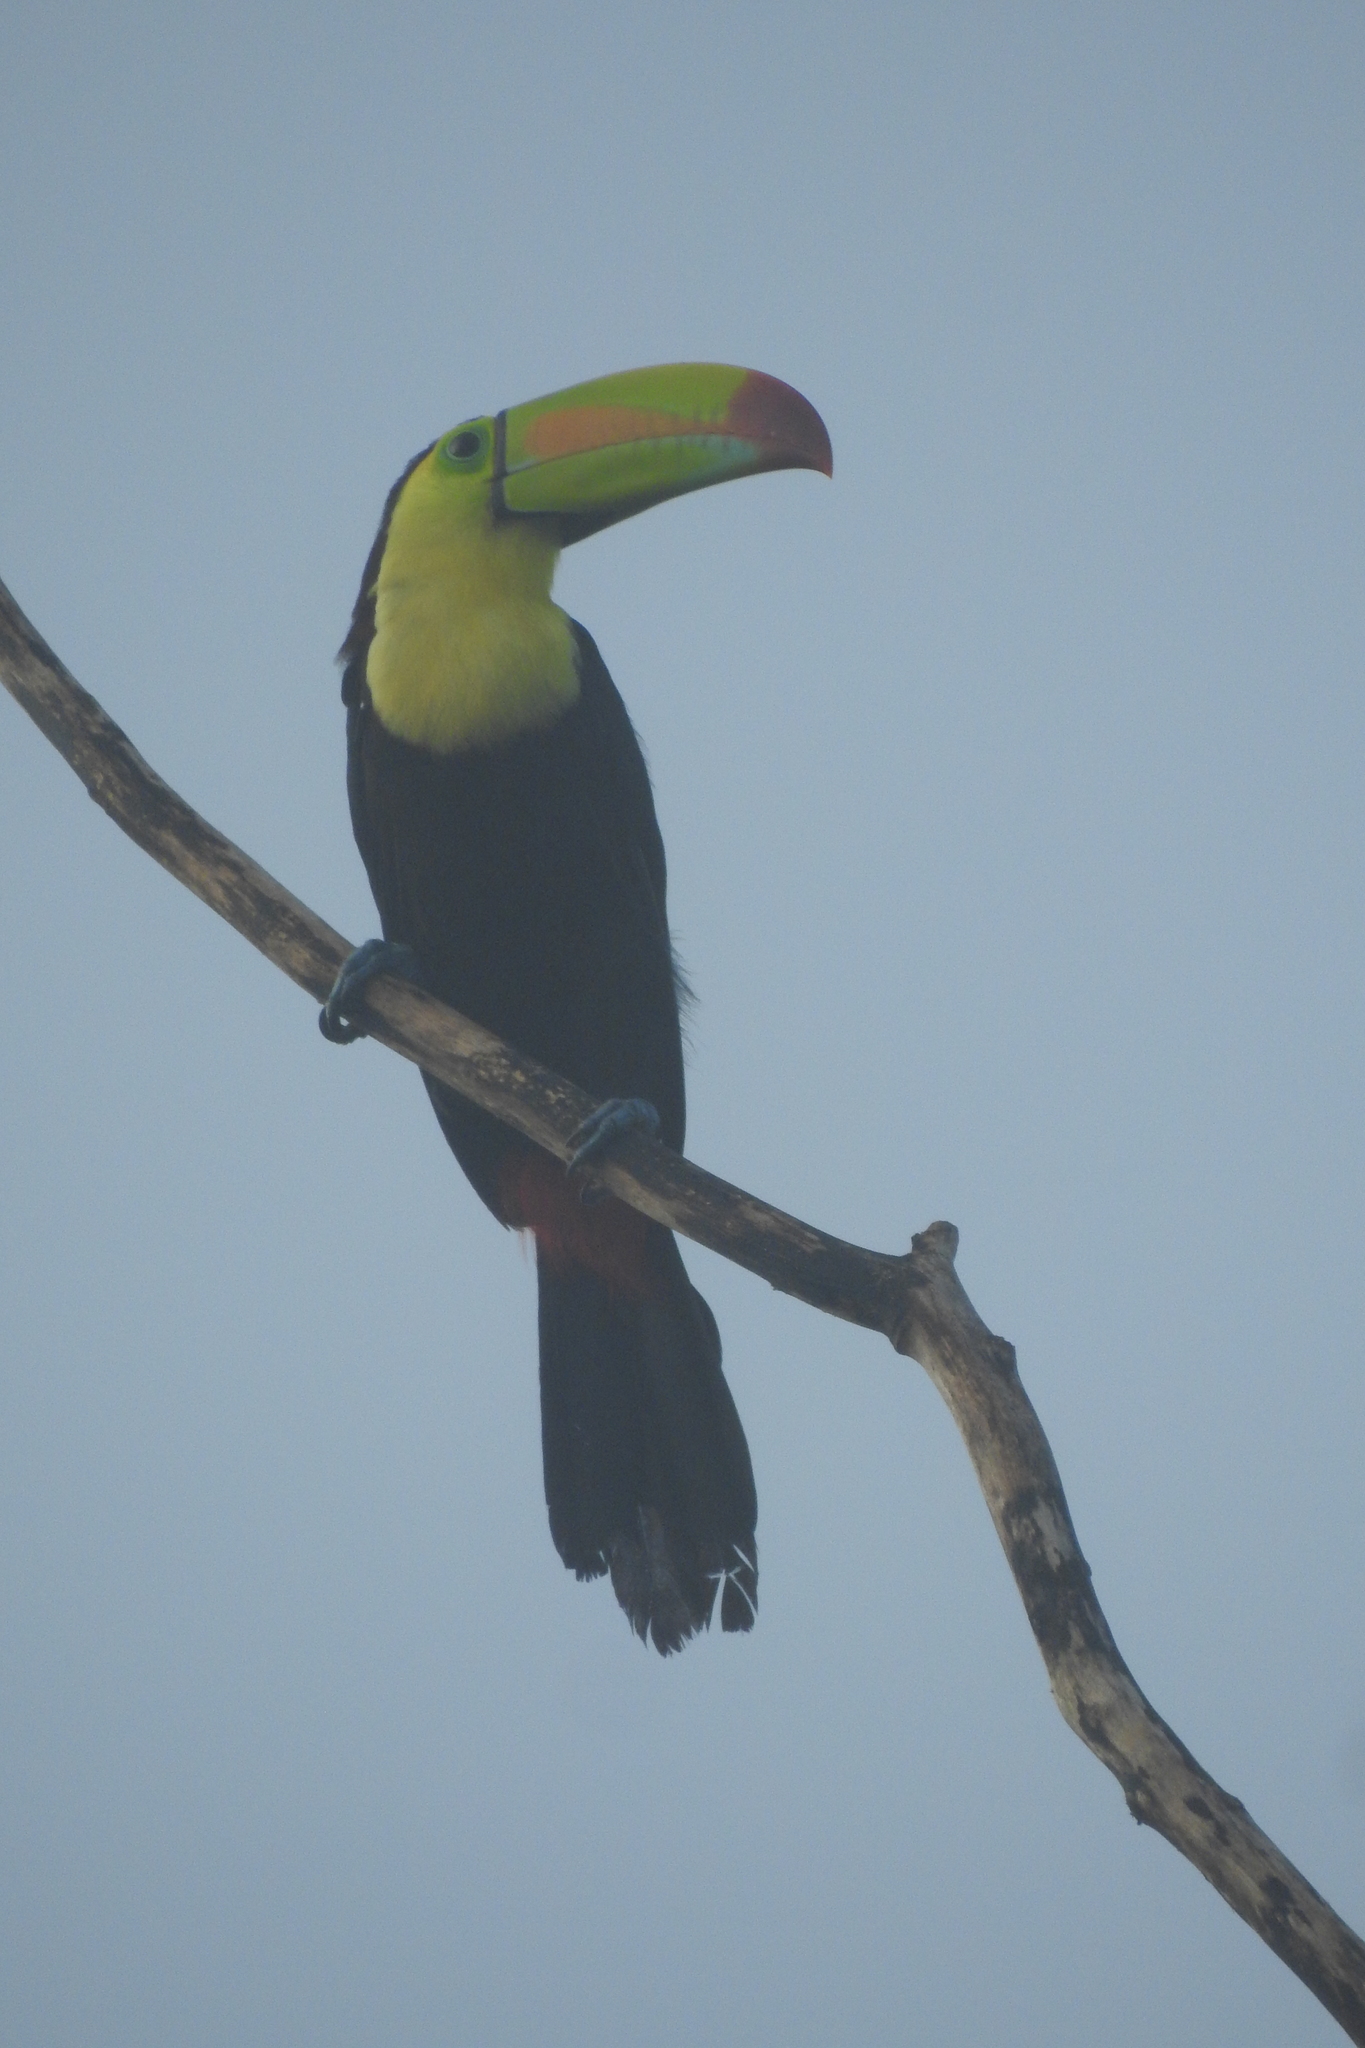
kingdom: Animalia
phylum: Chordata
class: Aves
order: Piciformes
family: Ramphastidae
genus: Ramphastos
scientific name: Ramphastos sulfuratus
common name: Keel-billed toucan
